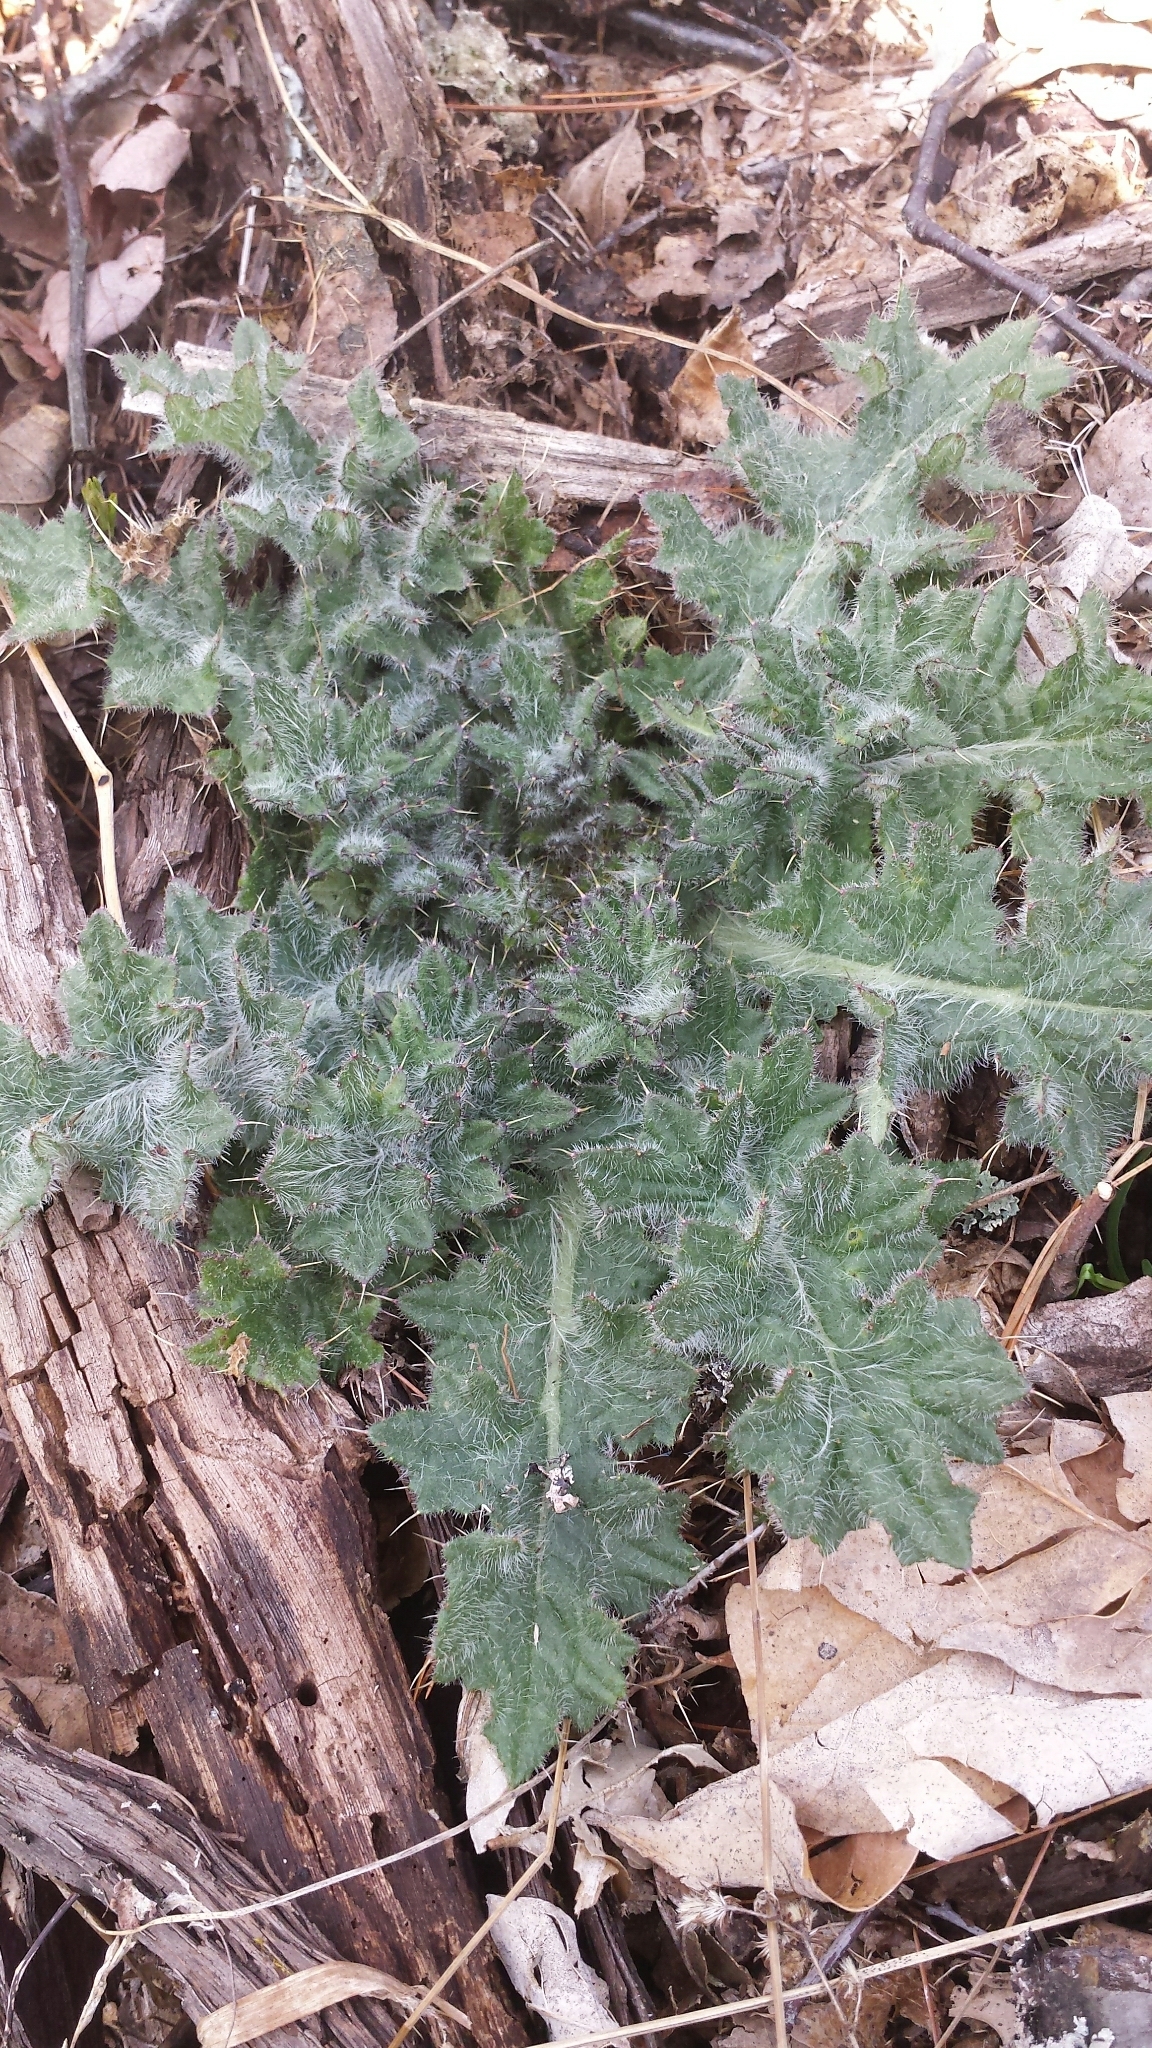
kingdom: Plantae
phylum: Tracheophyta
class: Magnoliopsida
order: Asterales
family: Asteraceae
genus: Cirsium
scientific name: Cirsium vulgare
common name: Bull thistle
